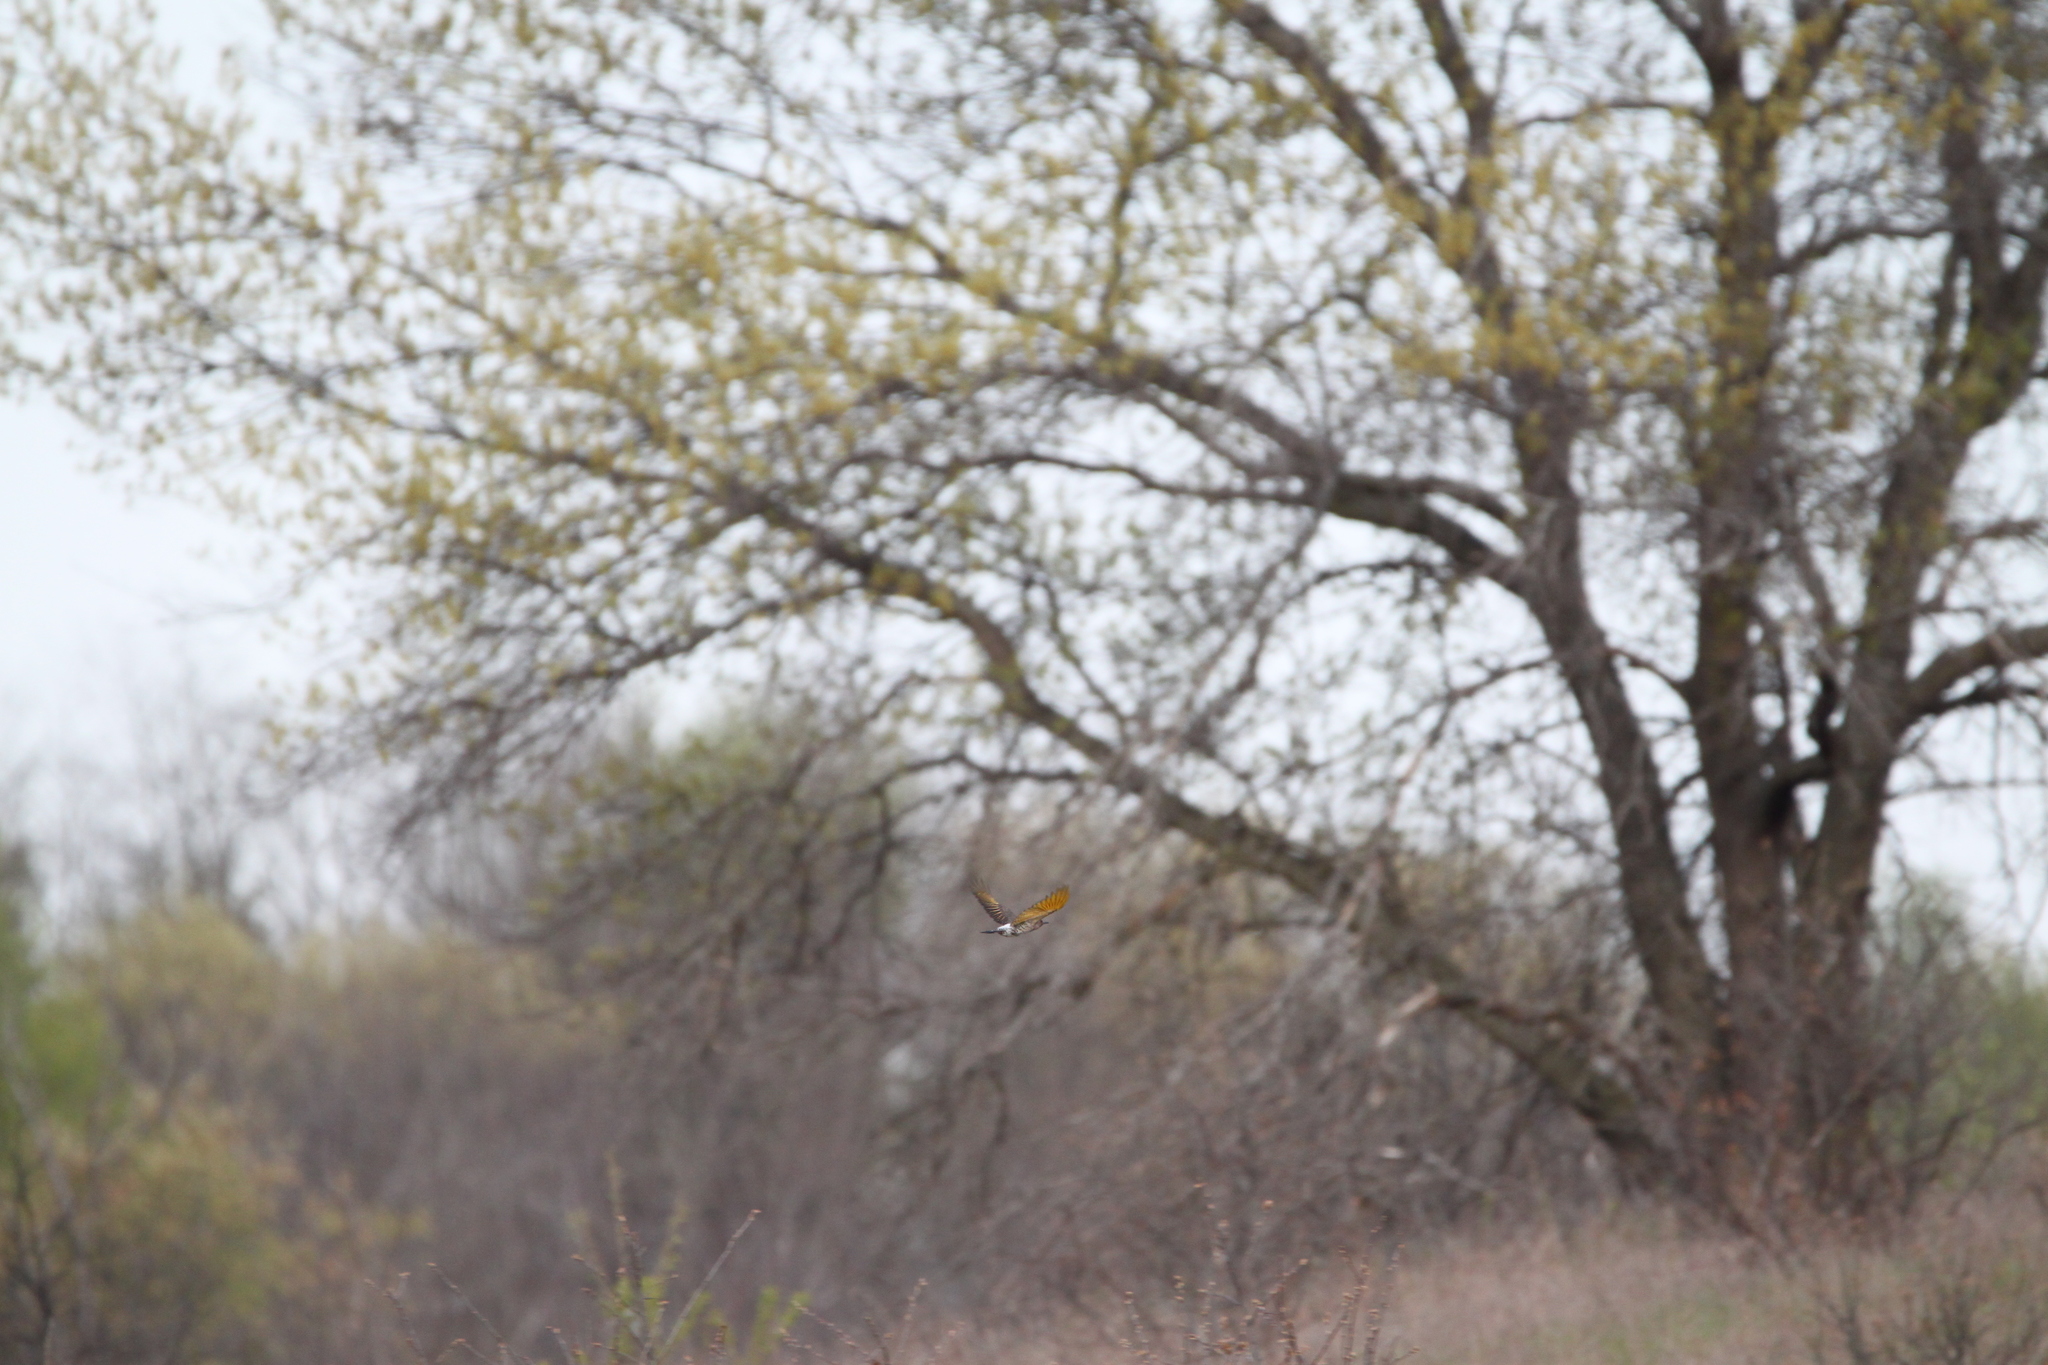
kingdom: Animalia
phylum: Chordata
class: Aves
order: Piciformes
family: Picidae
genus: Colaptes
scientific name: Colaptes auratus
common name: Northern flicker
